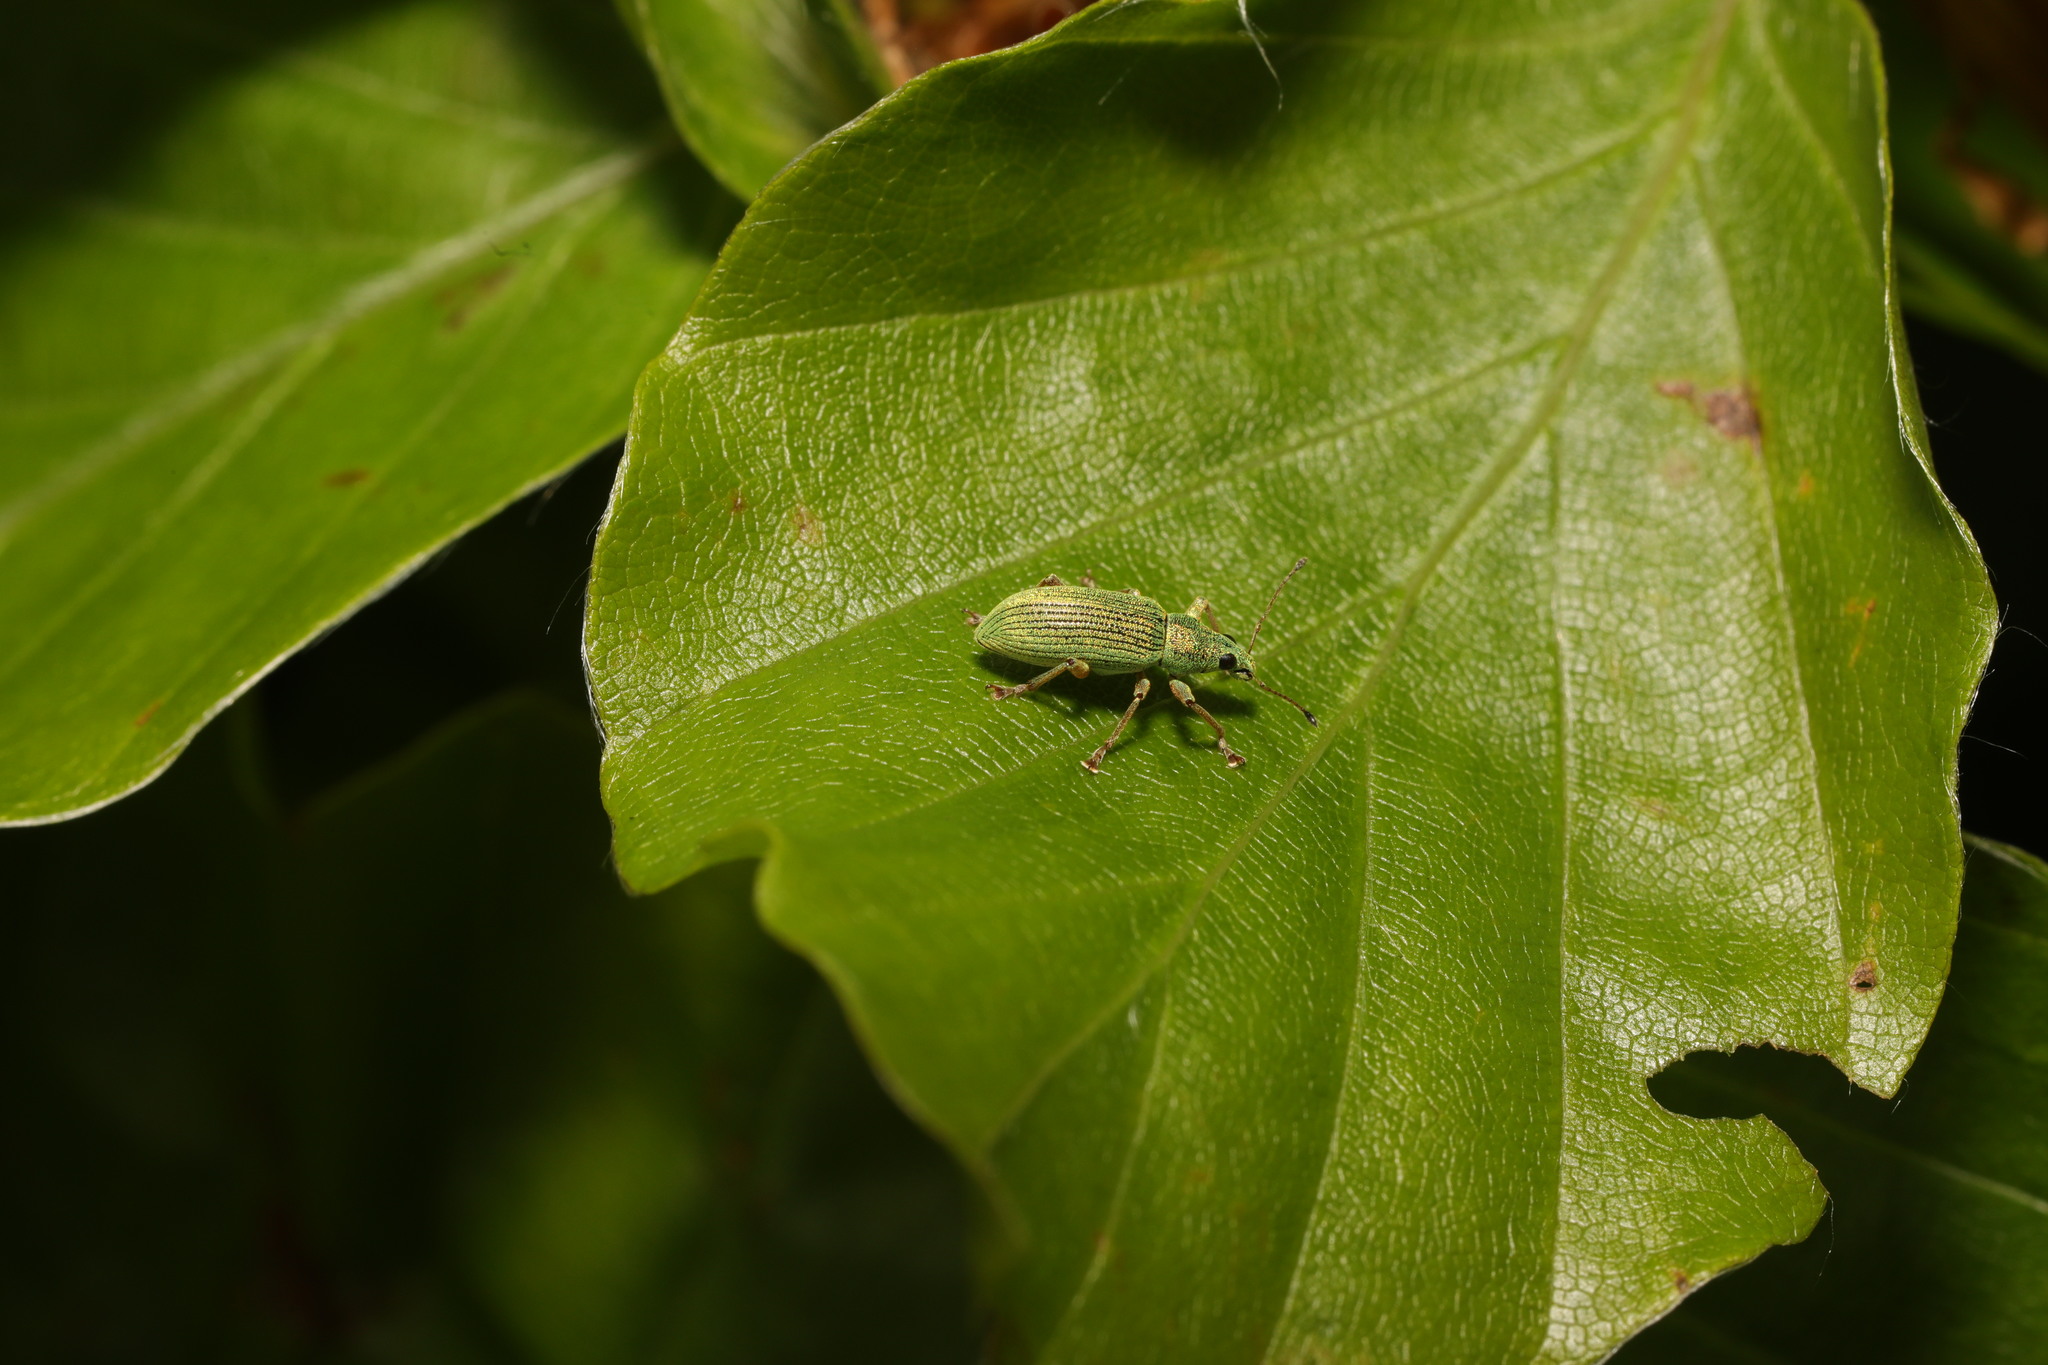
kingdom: Animalia
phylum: Arthropoda
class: Insecta
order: Coleoptera
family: Curculionidae
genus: Polydrusus
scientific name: Polydrusus formosus
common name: Weevil
